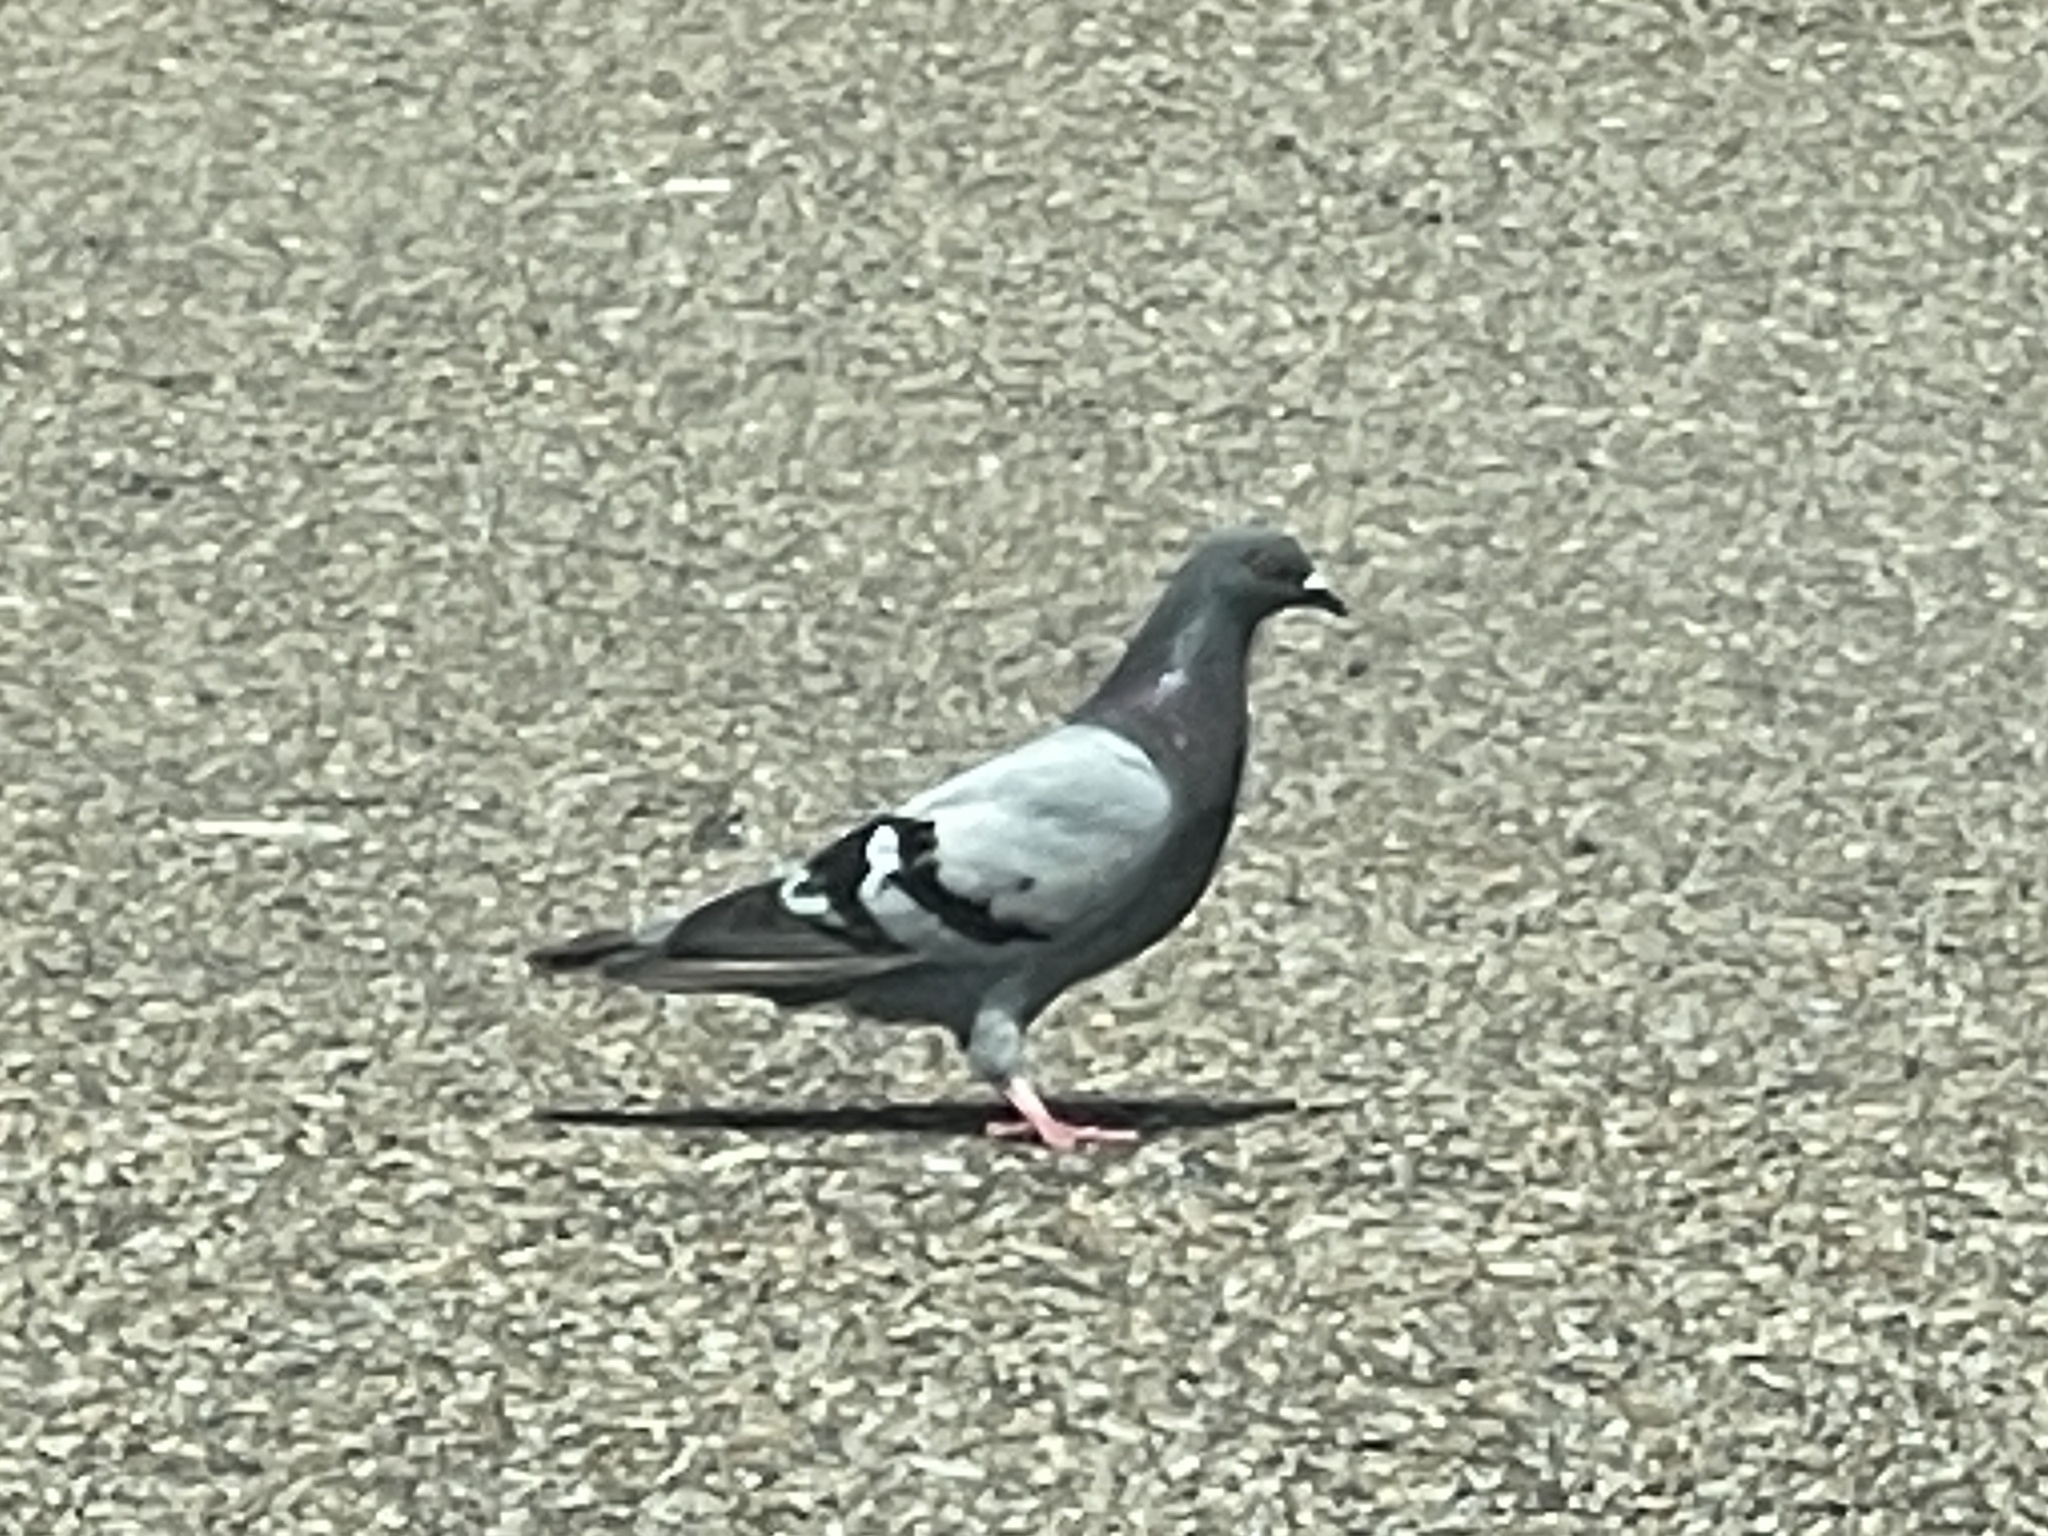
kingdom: Animalia
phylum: Chordata
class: Aves
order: Columbiformes
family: Columbidae
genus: Columba
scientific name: Columba livia
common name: Rock pigeon
